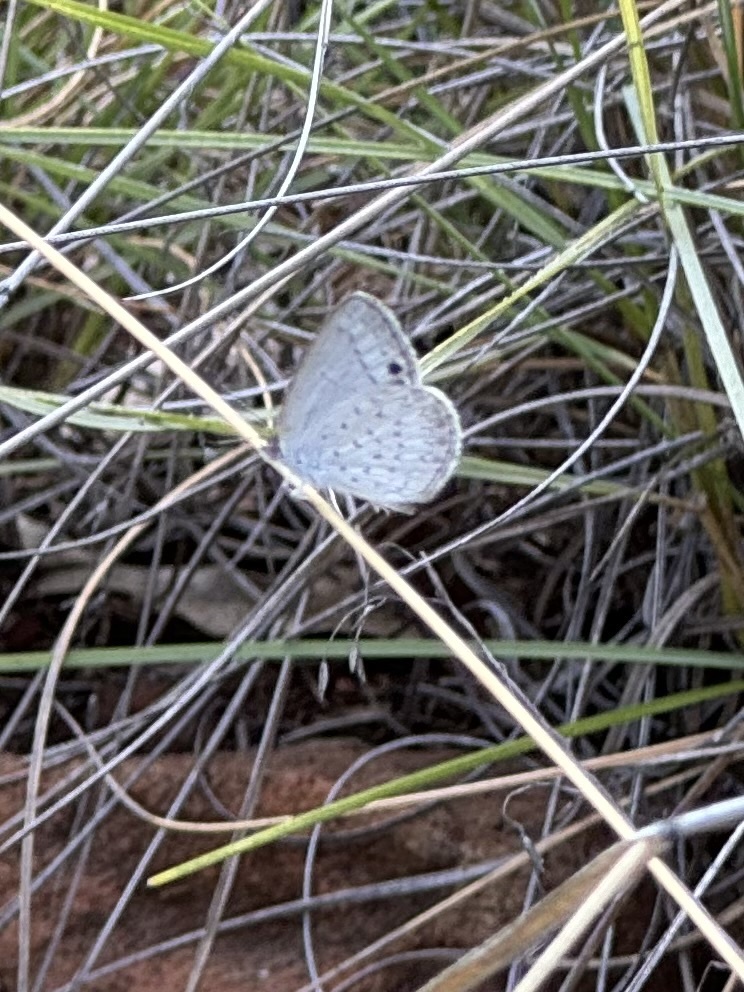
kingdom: Animalia
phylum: Arthropoda
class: Insecta
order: Lepidoptera
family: Lycaenidae
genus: Candalides
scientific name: Candalides
